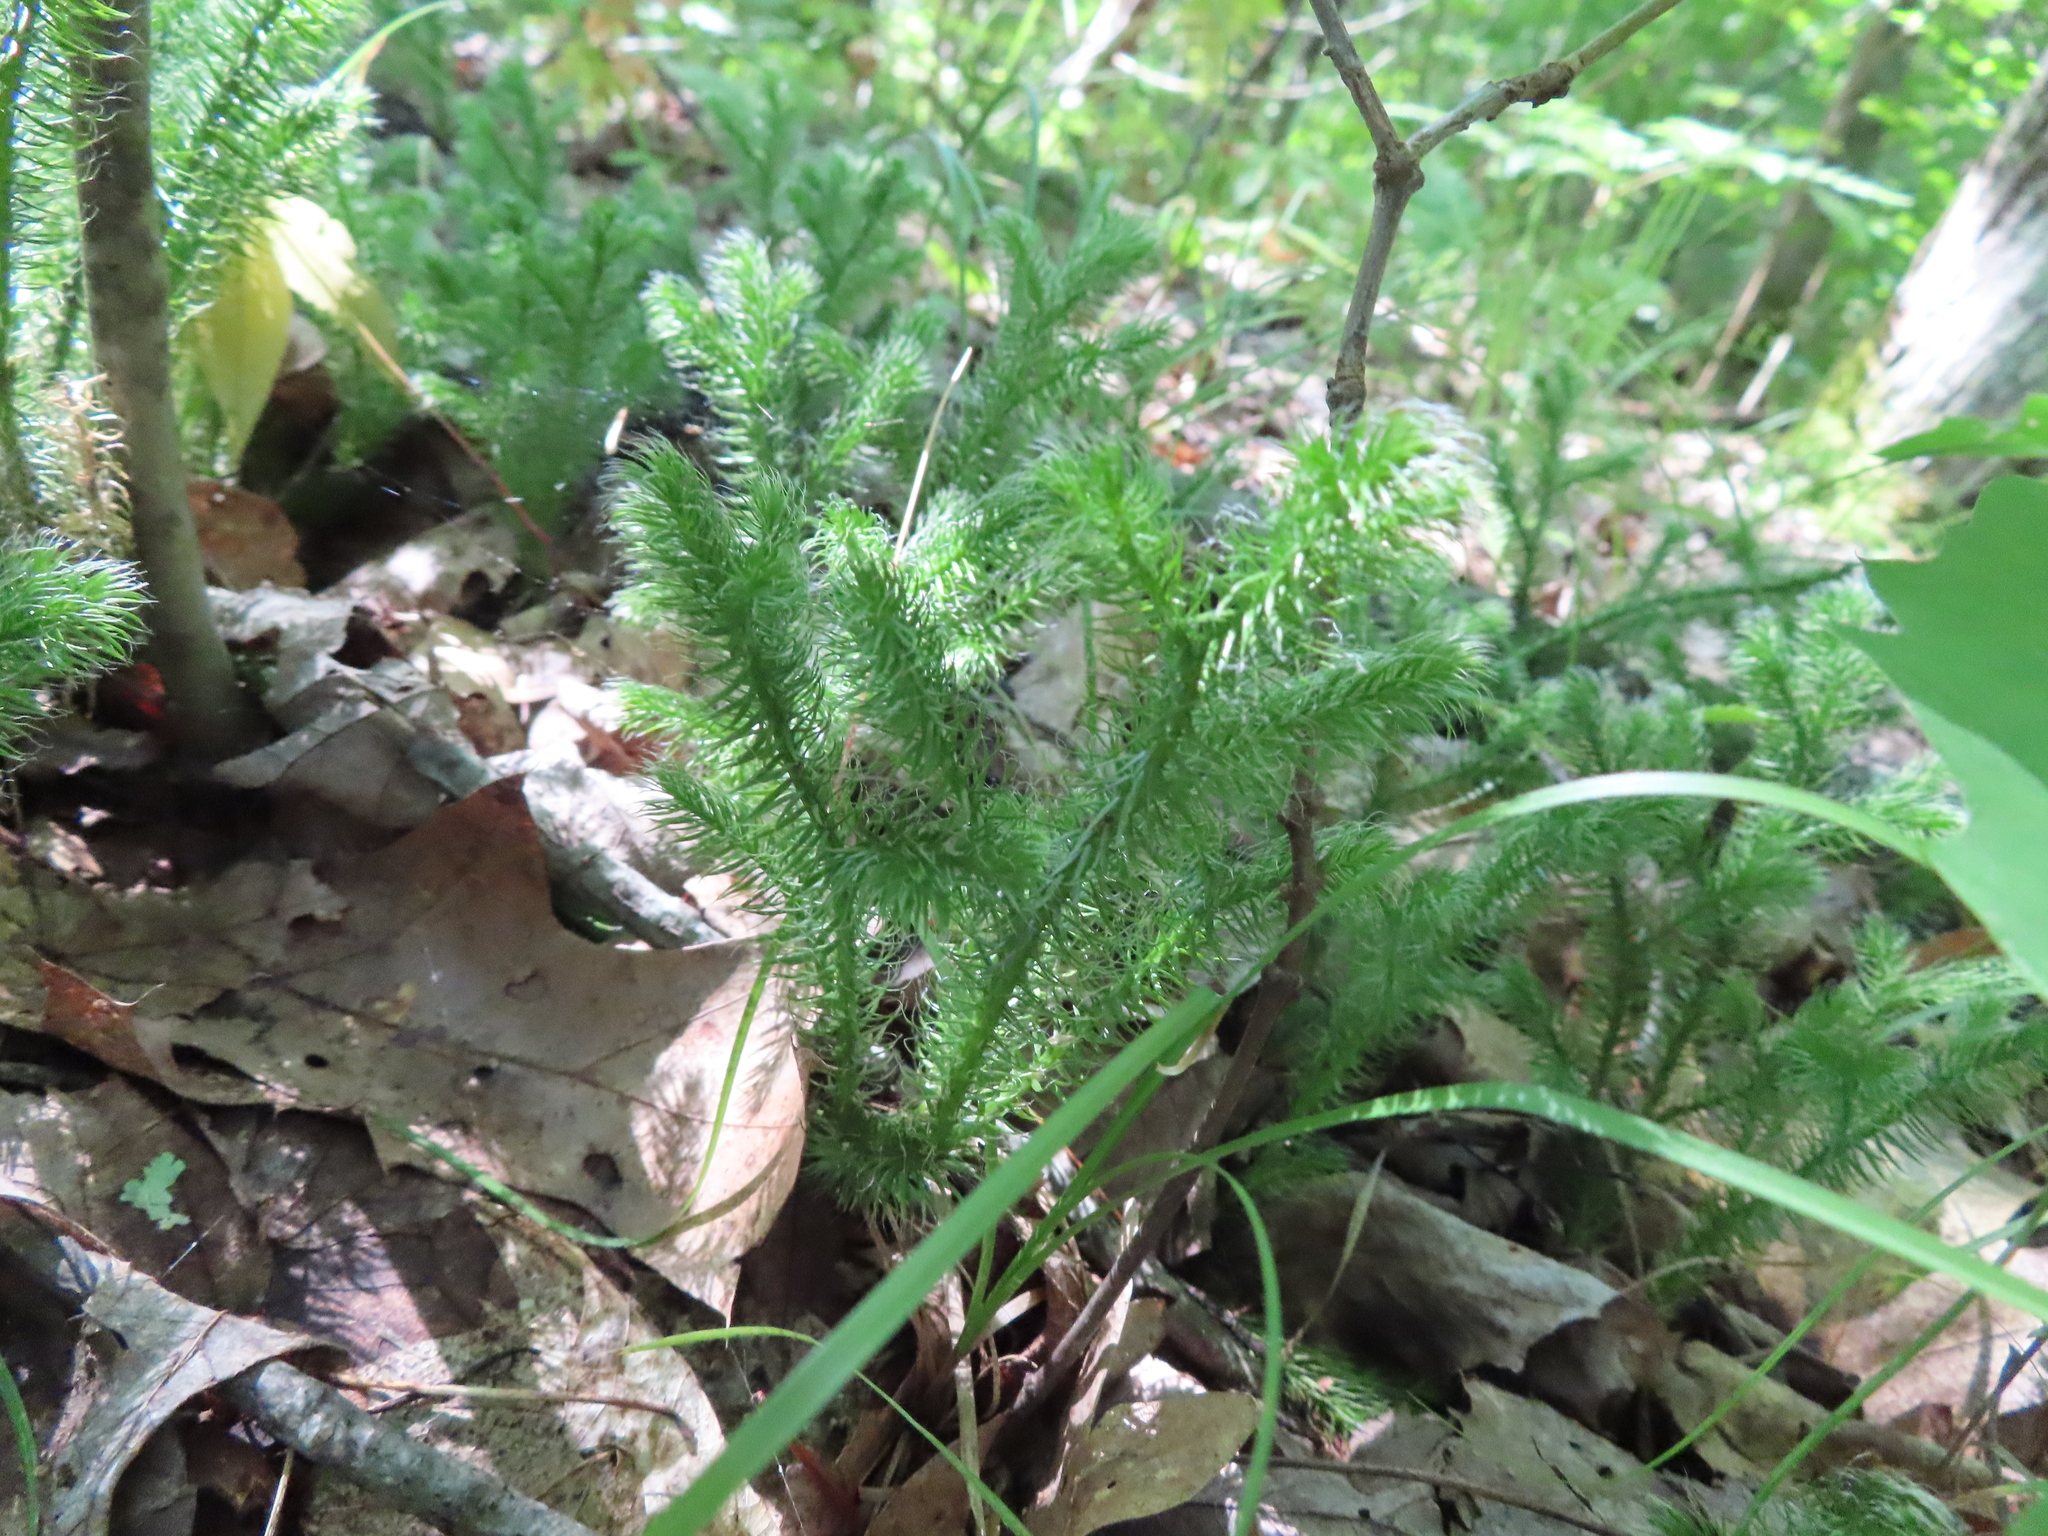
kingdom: Plantae
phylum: Tracheophyta
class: Lycopodiopsida
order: Lycopodiales
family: Lycopodiaceae
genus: Lycopodium
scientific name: Lycopodium clavatum
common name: Stag's-horn clubmoss
